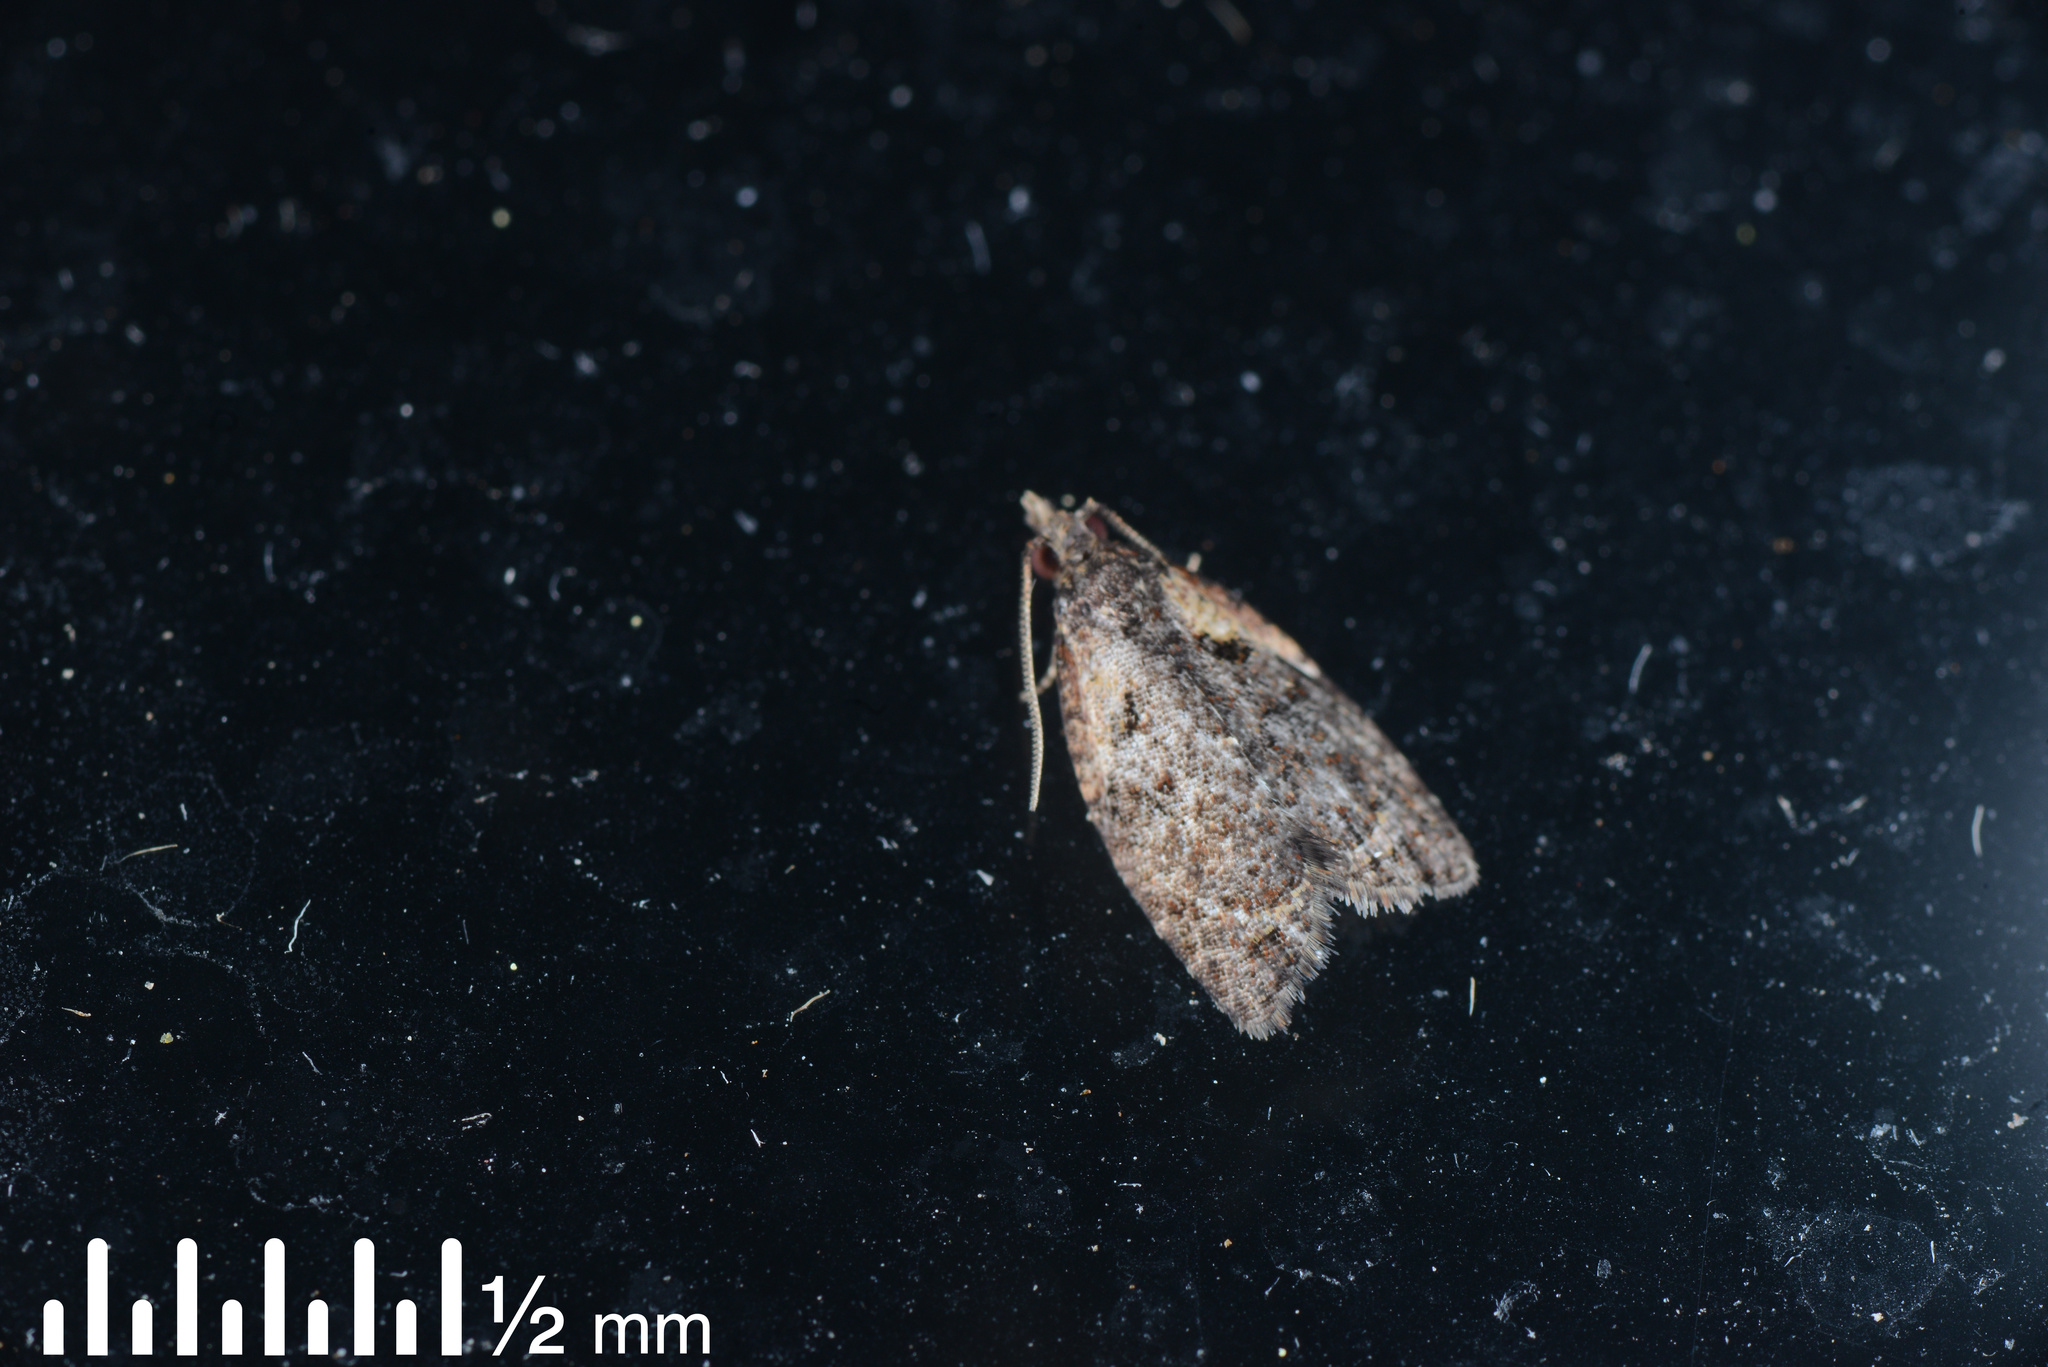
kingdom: Animalia
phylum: Arthropoda
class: Insecta
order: Lepidoptera
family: Tortricidae
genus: Capua
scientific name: Capua intractana
